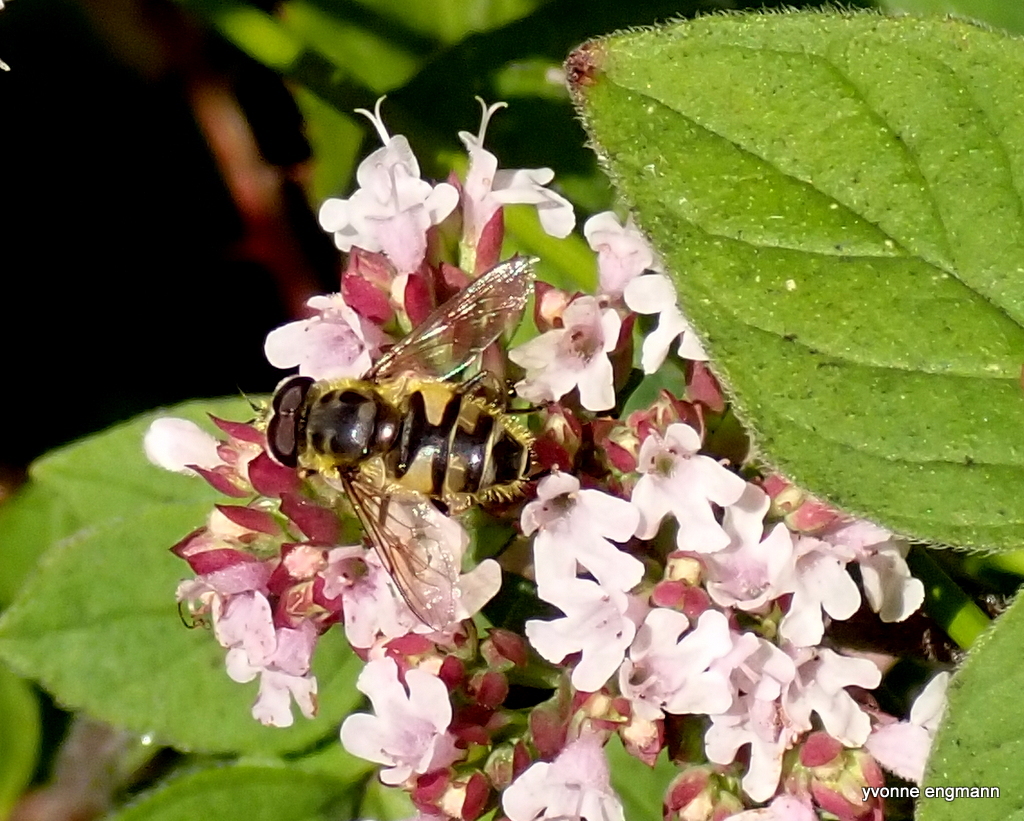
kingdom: Animalia
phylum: Arthropoda
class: Insecta
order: Diptera
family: Syrphidae
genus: Myathropa
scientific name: Myathropa florea
